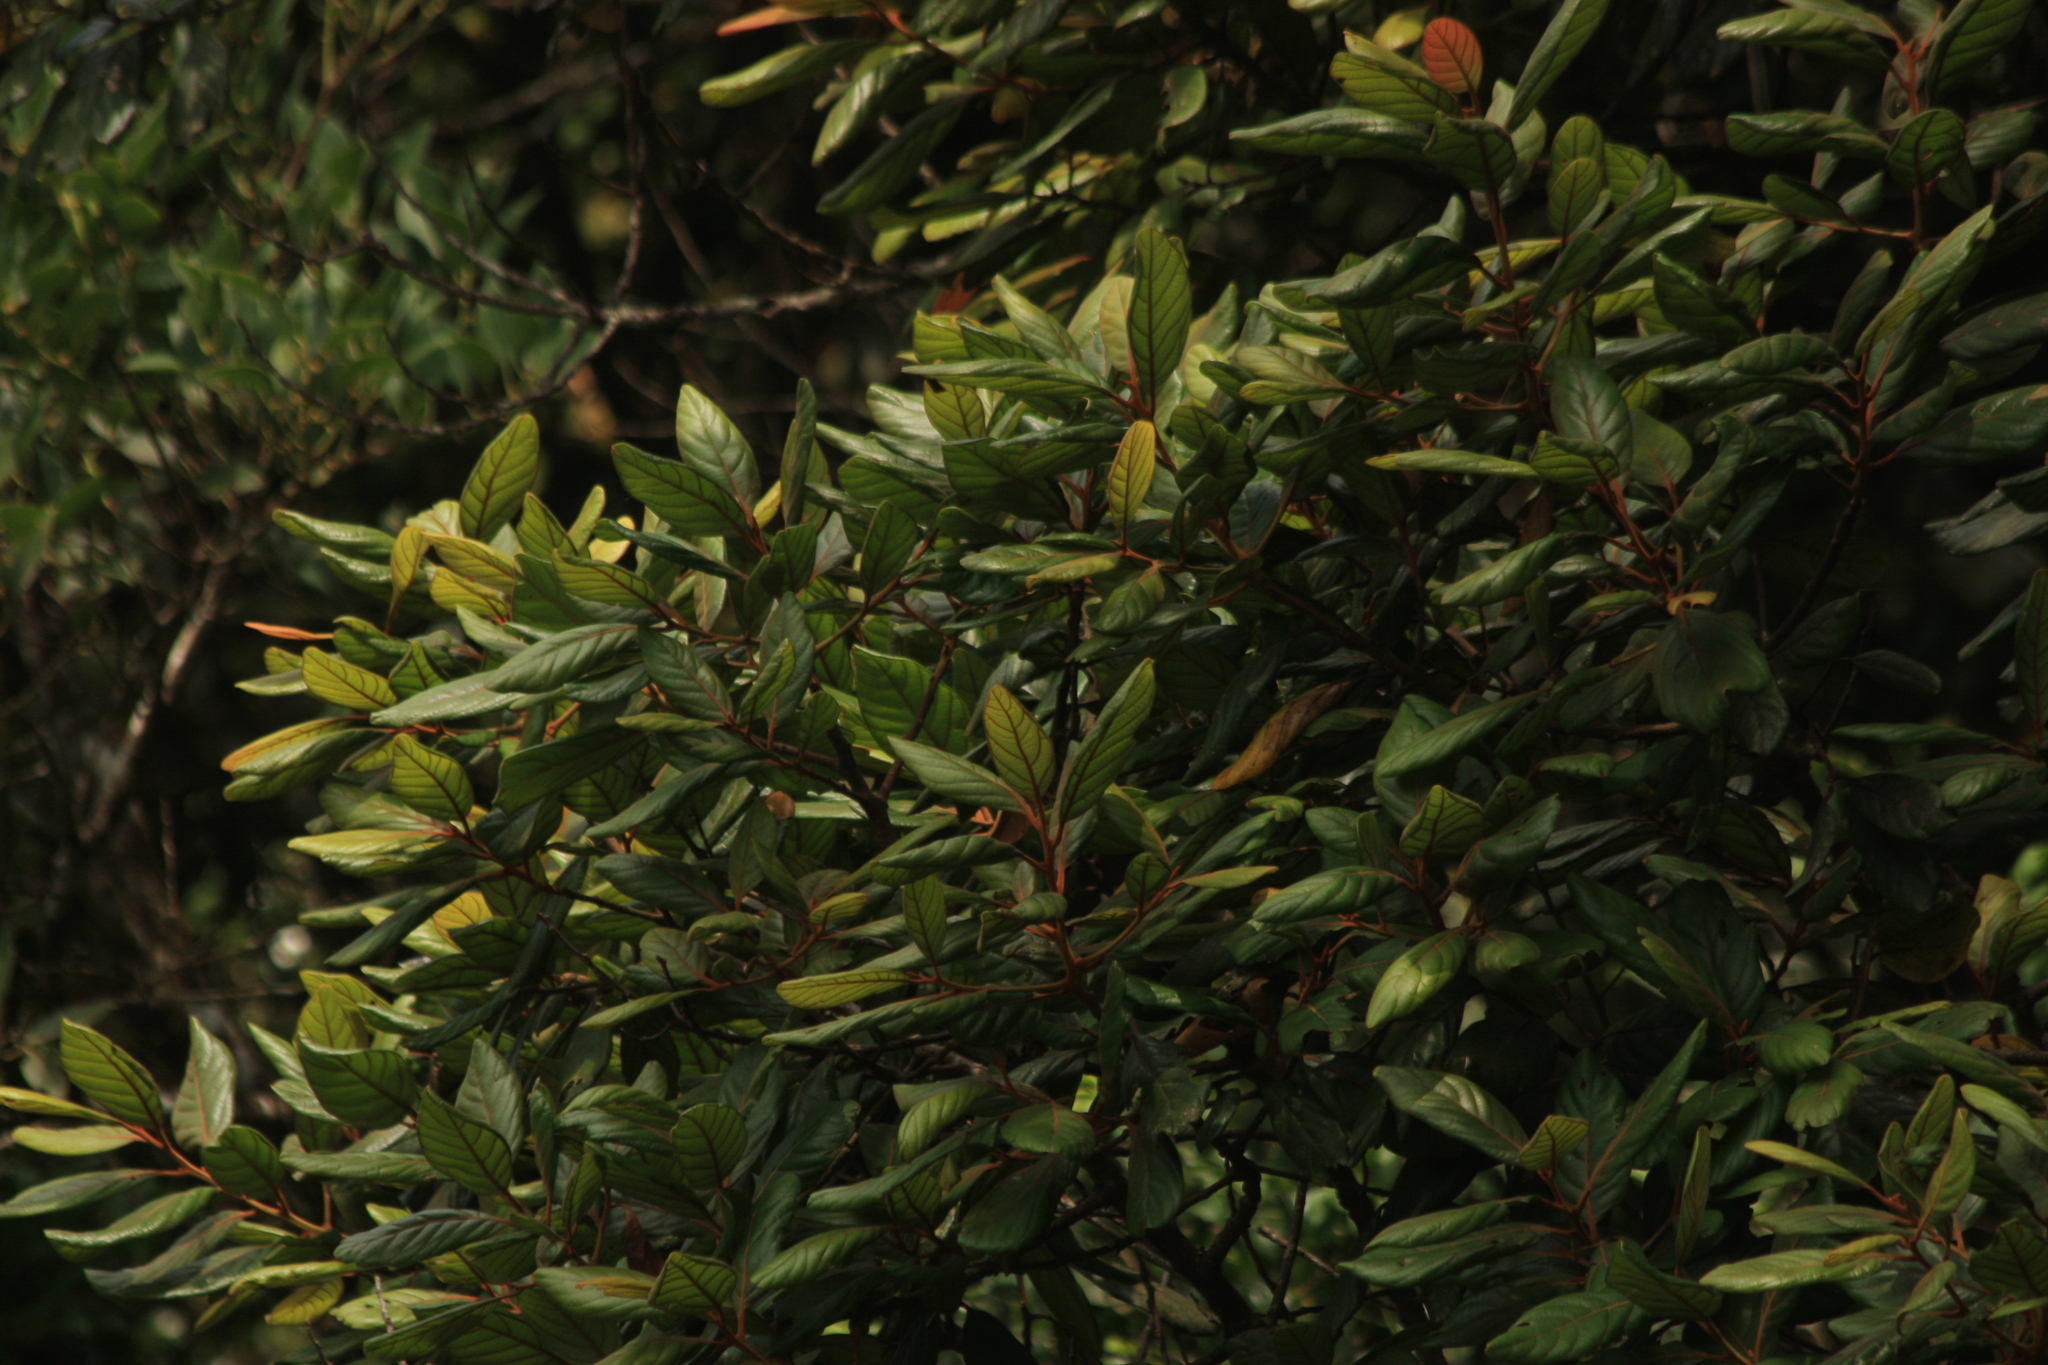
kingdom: Plantae
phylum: Tracheophyta
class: Magnoliopsida
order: Laurales
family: Lauraceae
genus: Litsea
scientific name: Litsea bourdillonii
